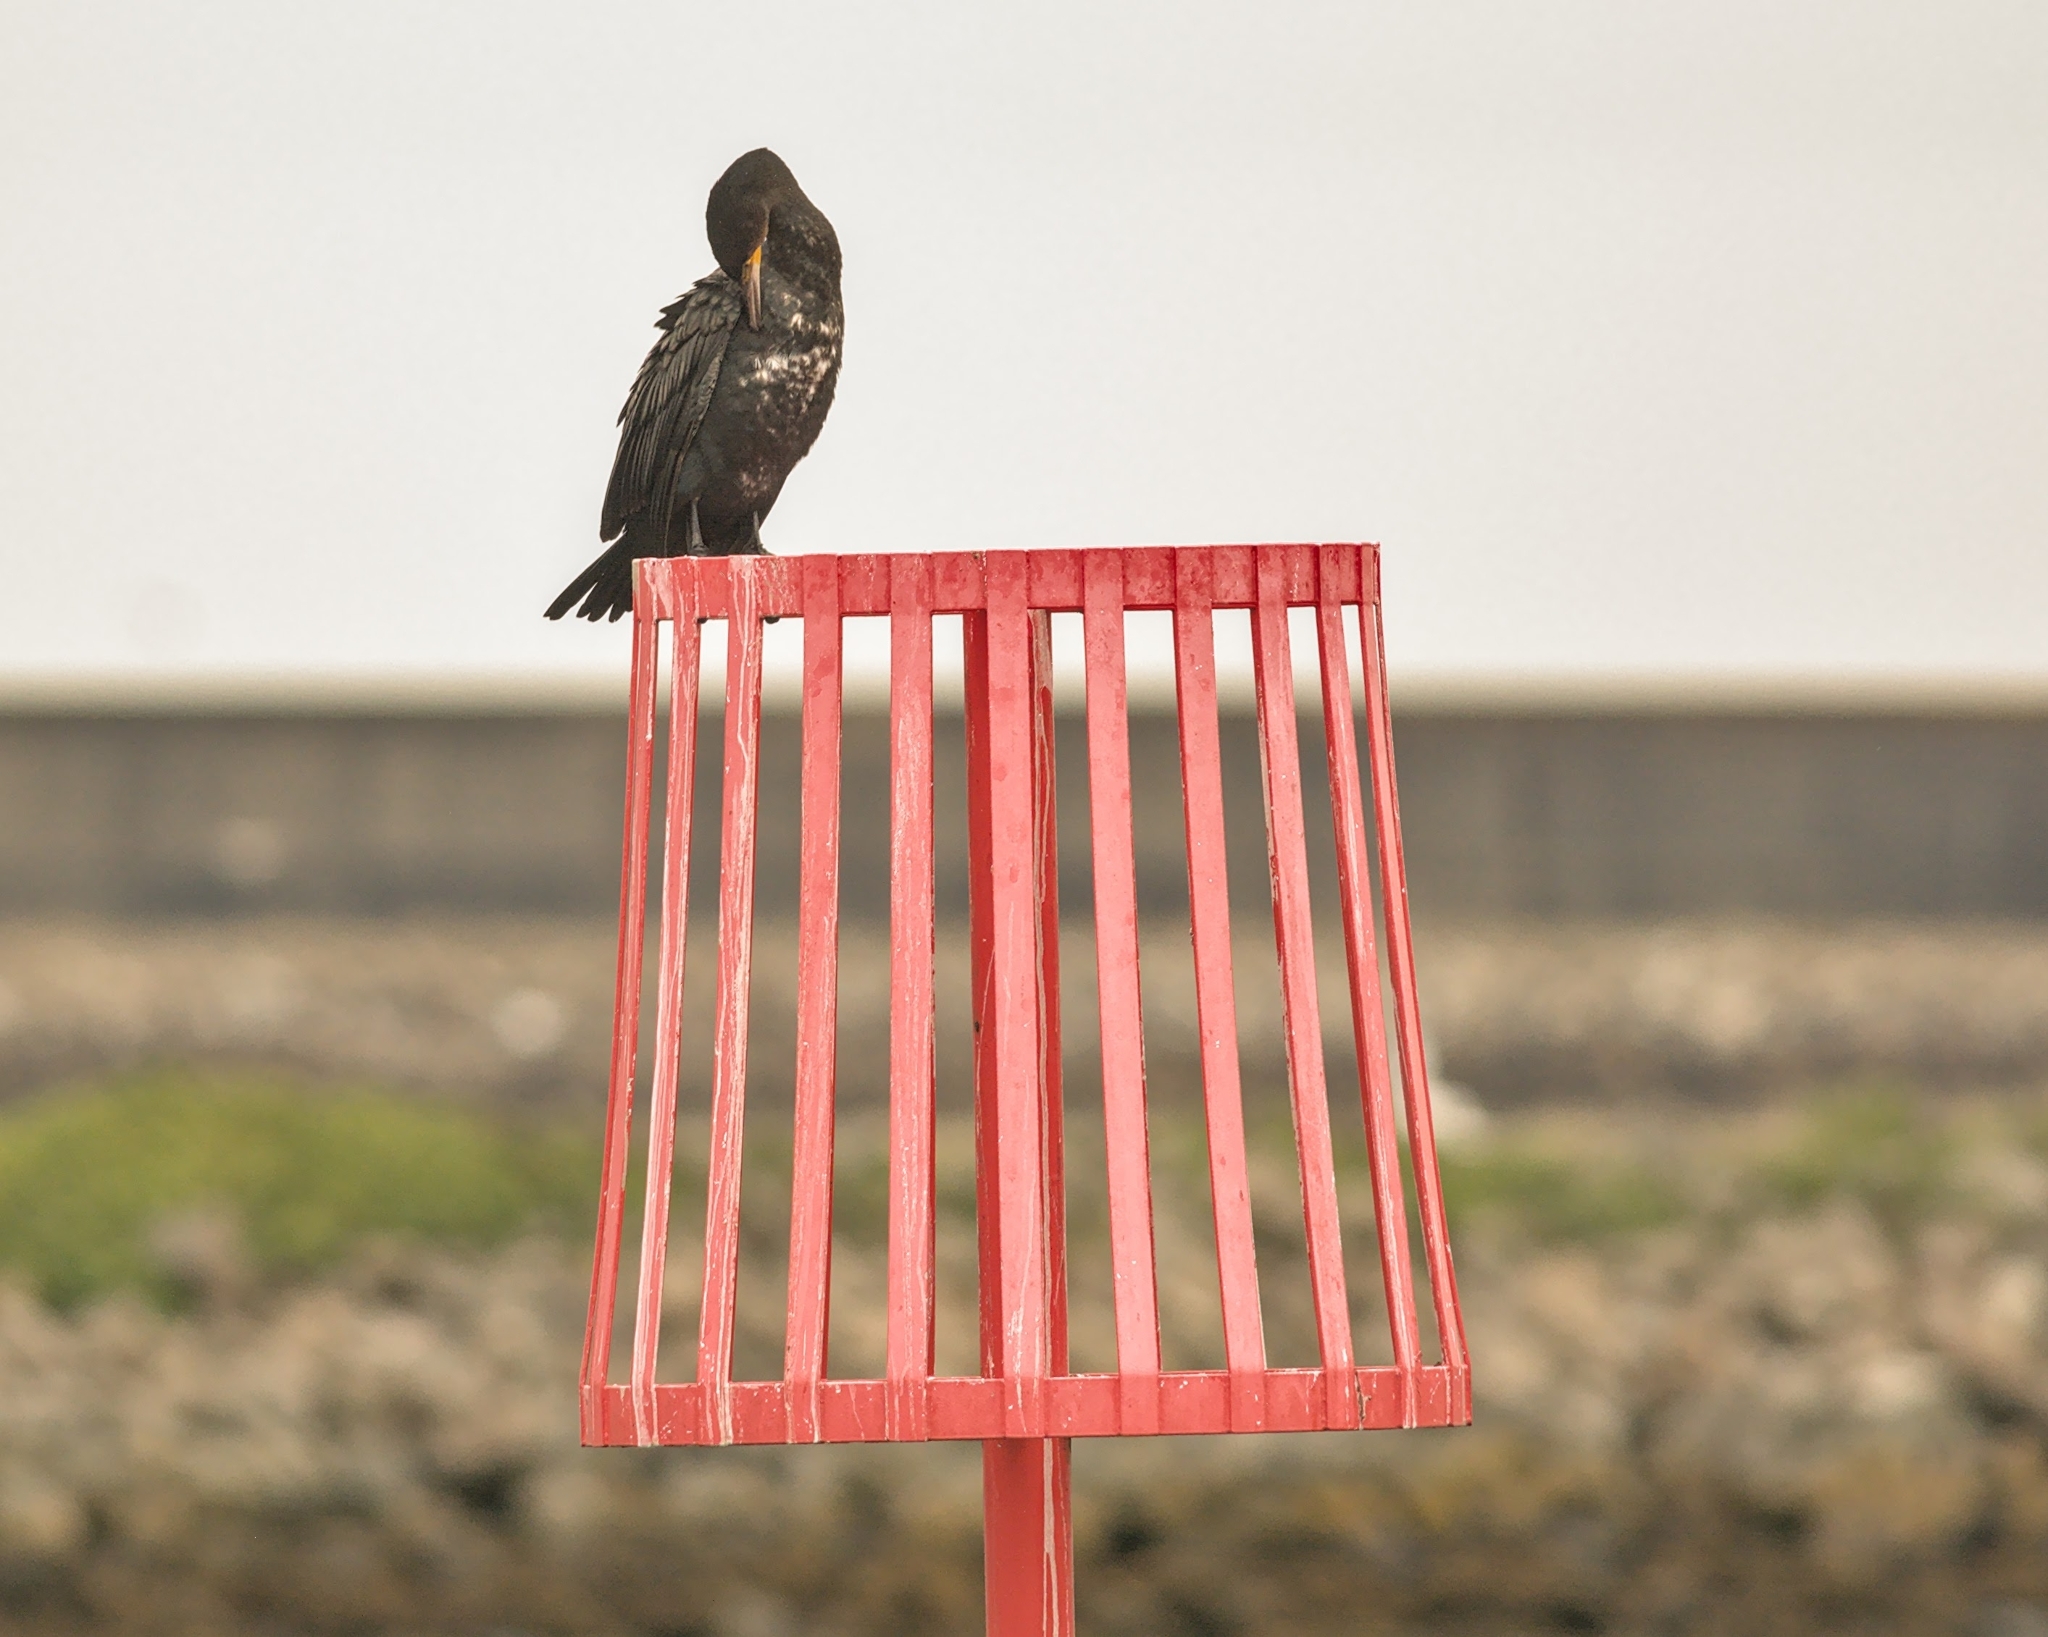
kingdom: Animalia
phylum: Chordata
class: Aves
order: Suliformes
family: Phalacrocoracidae
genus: Phalacrocorax
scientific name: Phalacrocorax carbo
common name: Great cormorant
